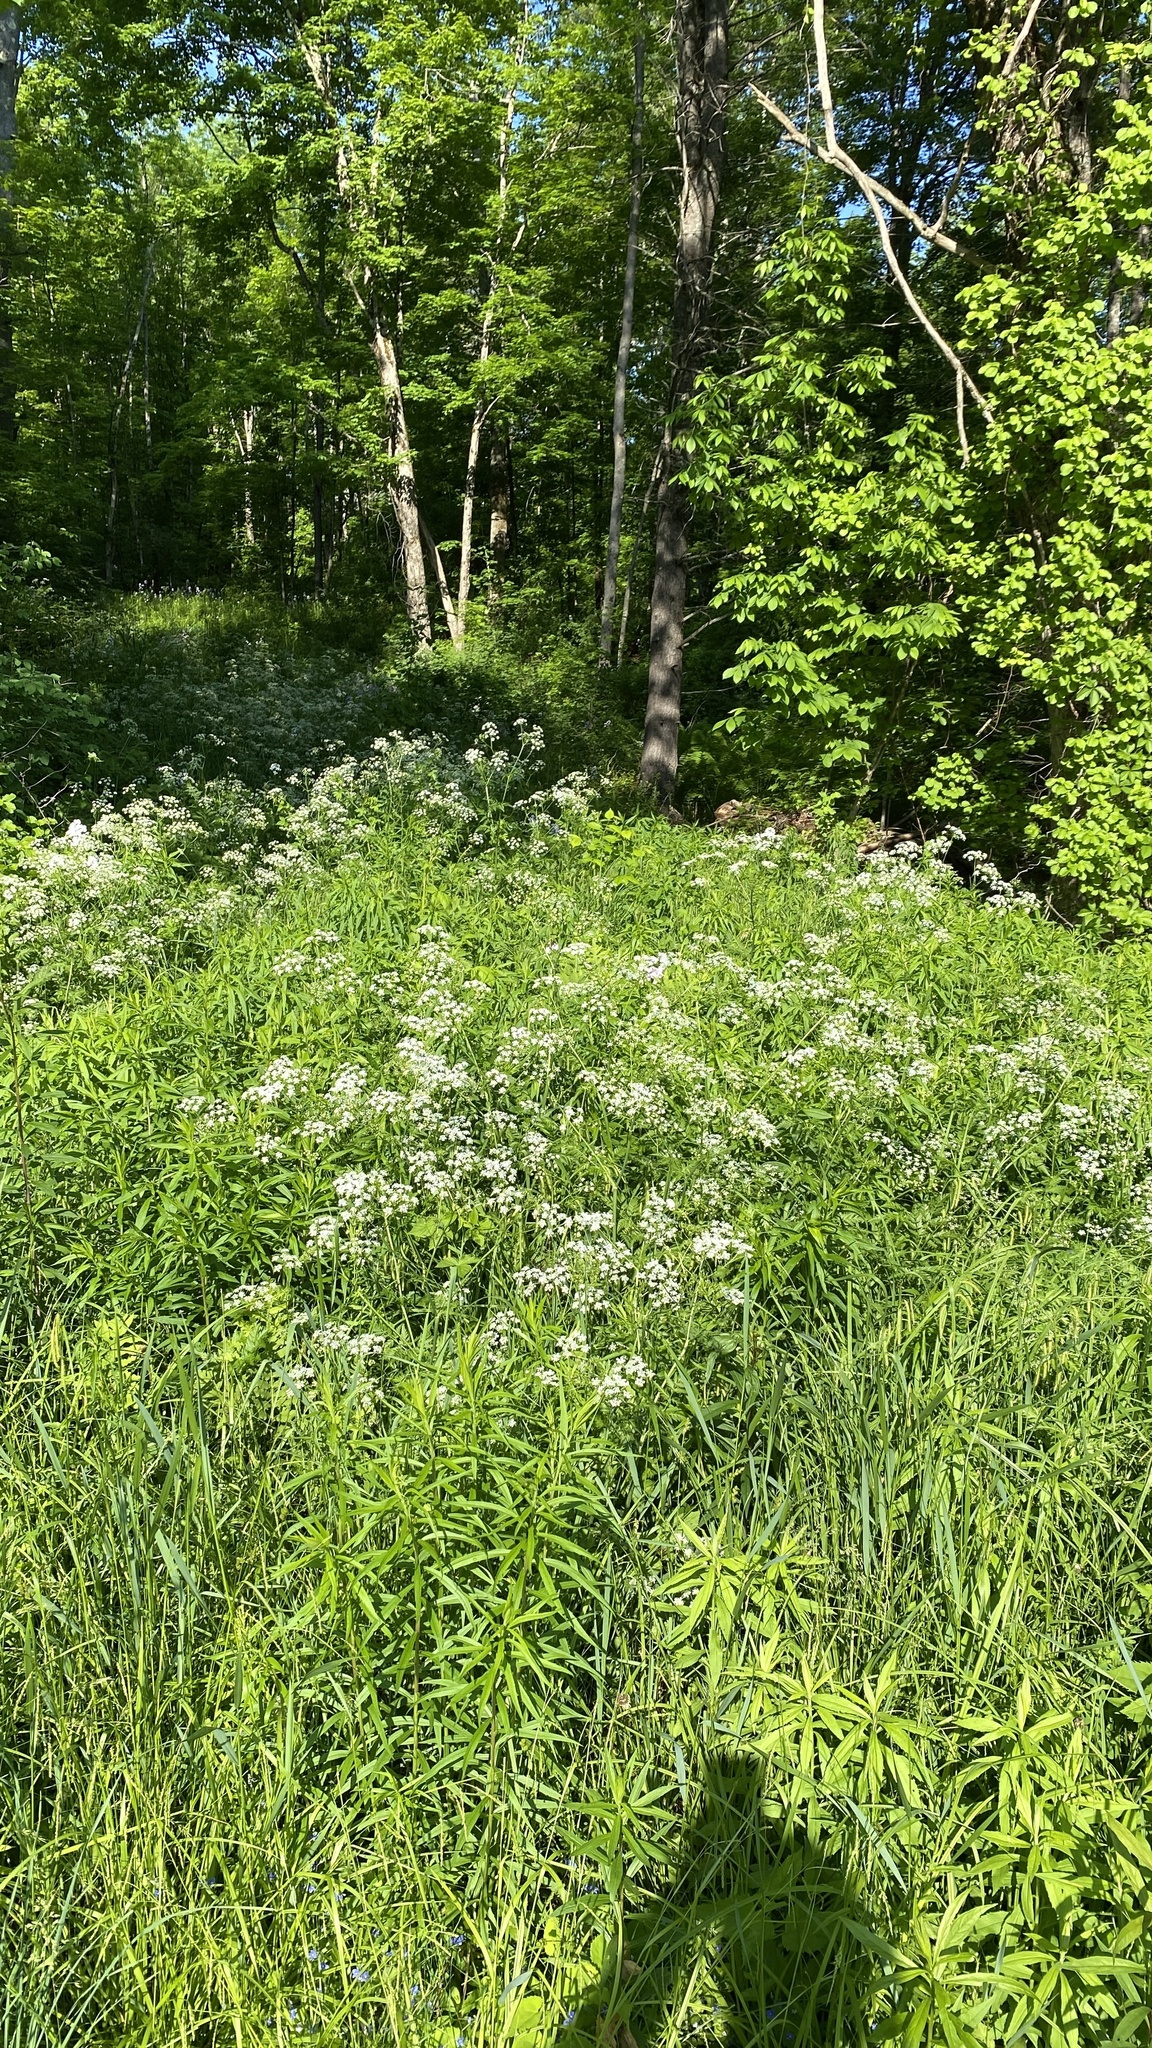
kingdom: Plantae
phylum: Tracheophyta
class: Magnoliopsida
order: Apiales
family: Apiaceae
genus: Anthriscus
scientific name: Anthriscus sylvestris
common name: Cow parsley
